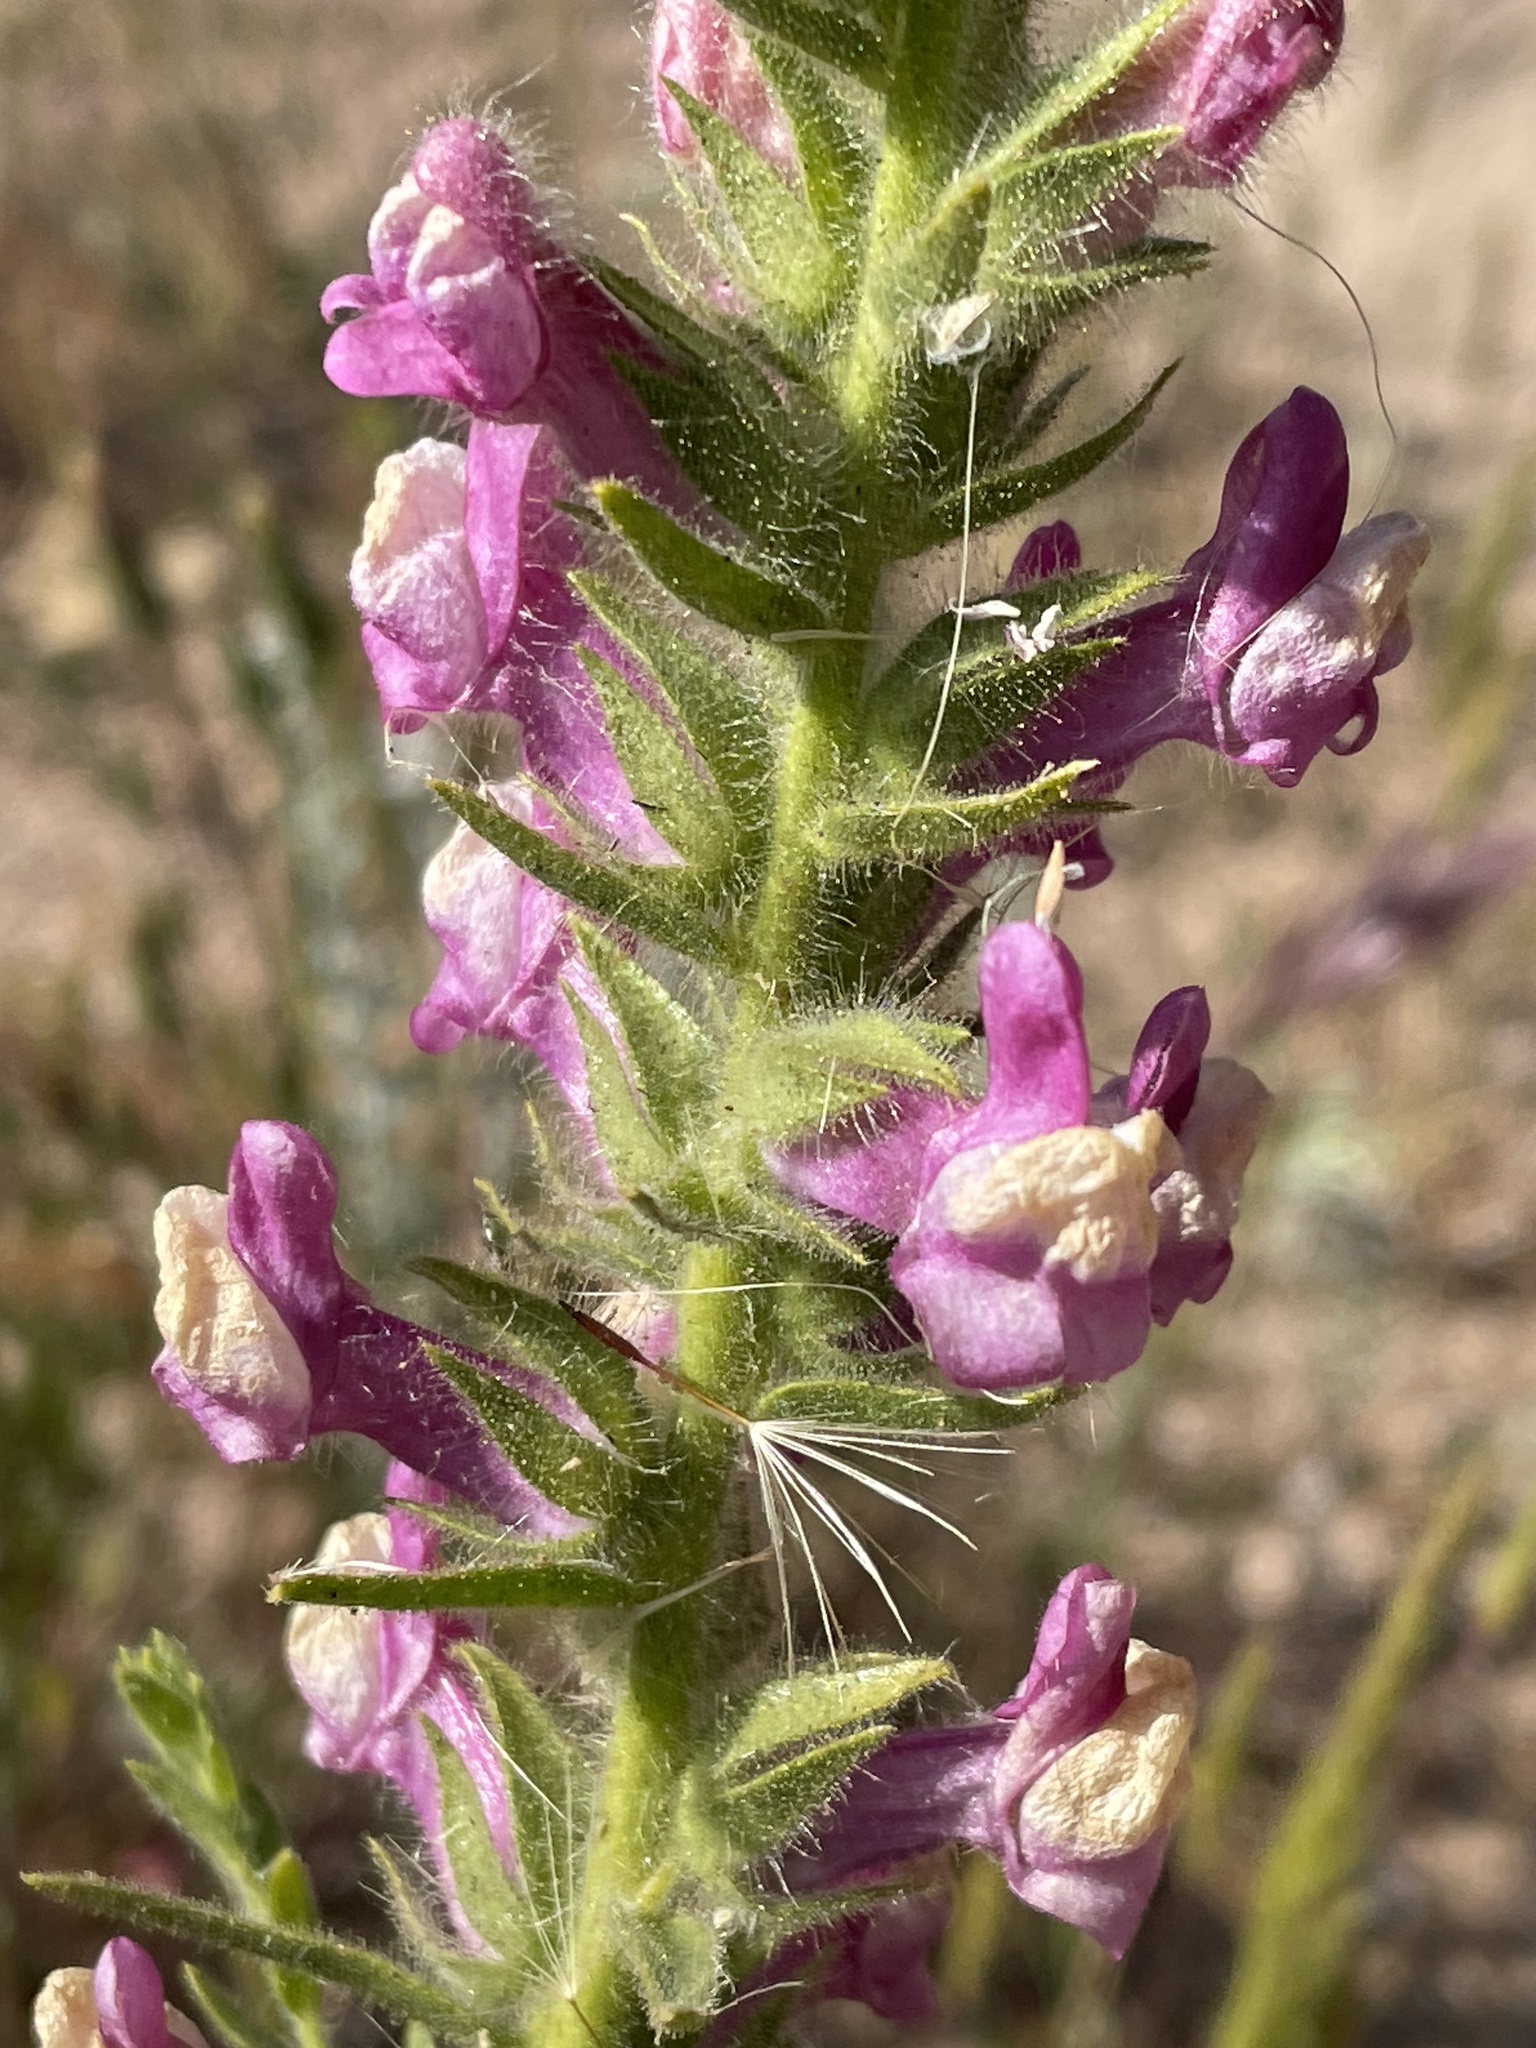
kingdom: Plantae
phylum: Tracheophyta
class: Magnoliopsida
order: Lamiales
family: Plantaginaceae
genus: Sairocarpus
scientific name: Sairocarpus multiflorus
